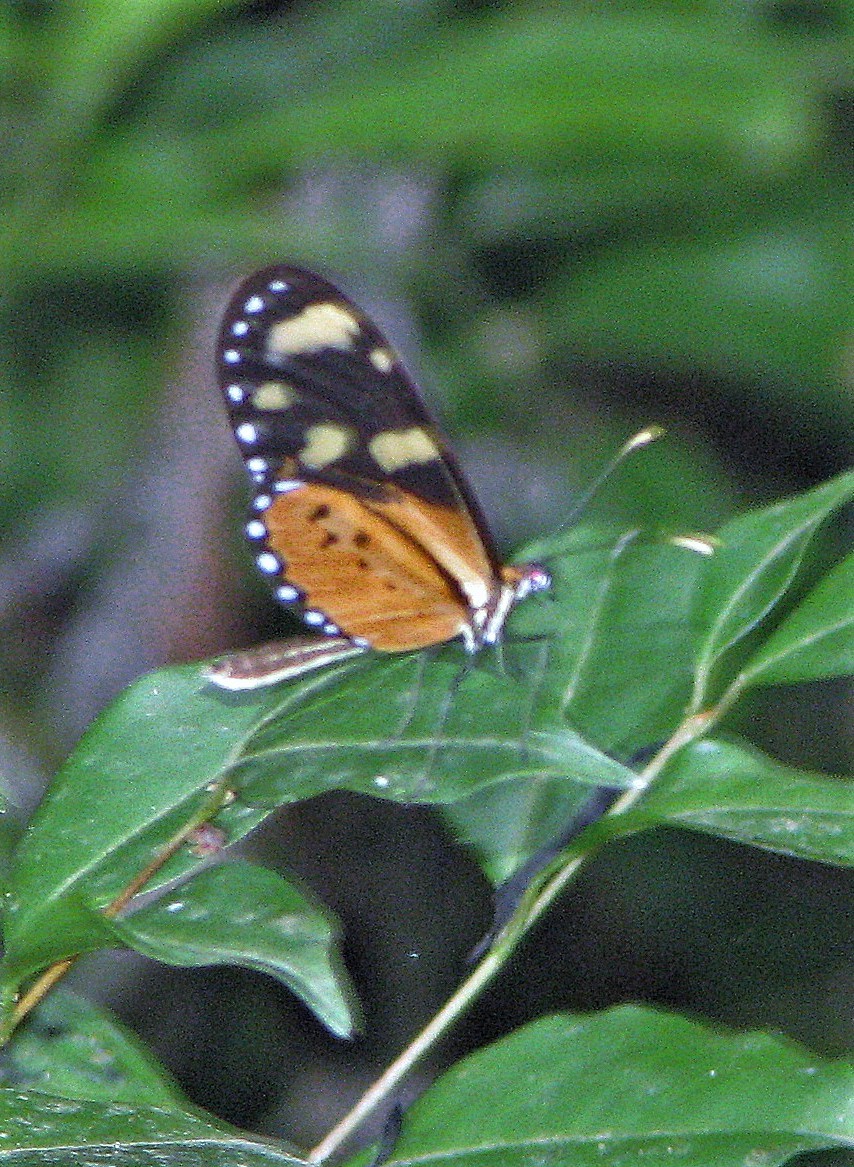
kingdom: Animalia
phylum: Arthropoda
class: Insecta
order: Lepidoptera
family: Nymphalidae
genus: Mechanitis
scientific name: Mechanitis lysimnia
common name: Lysimnia tigerwing
